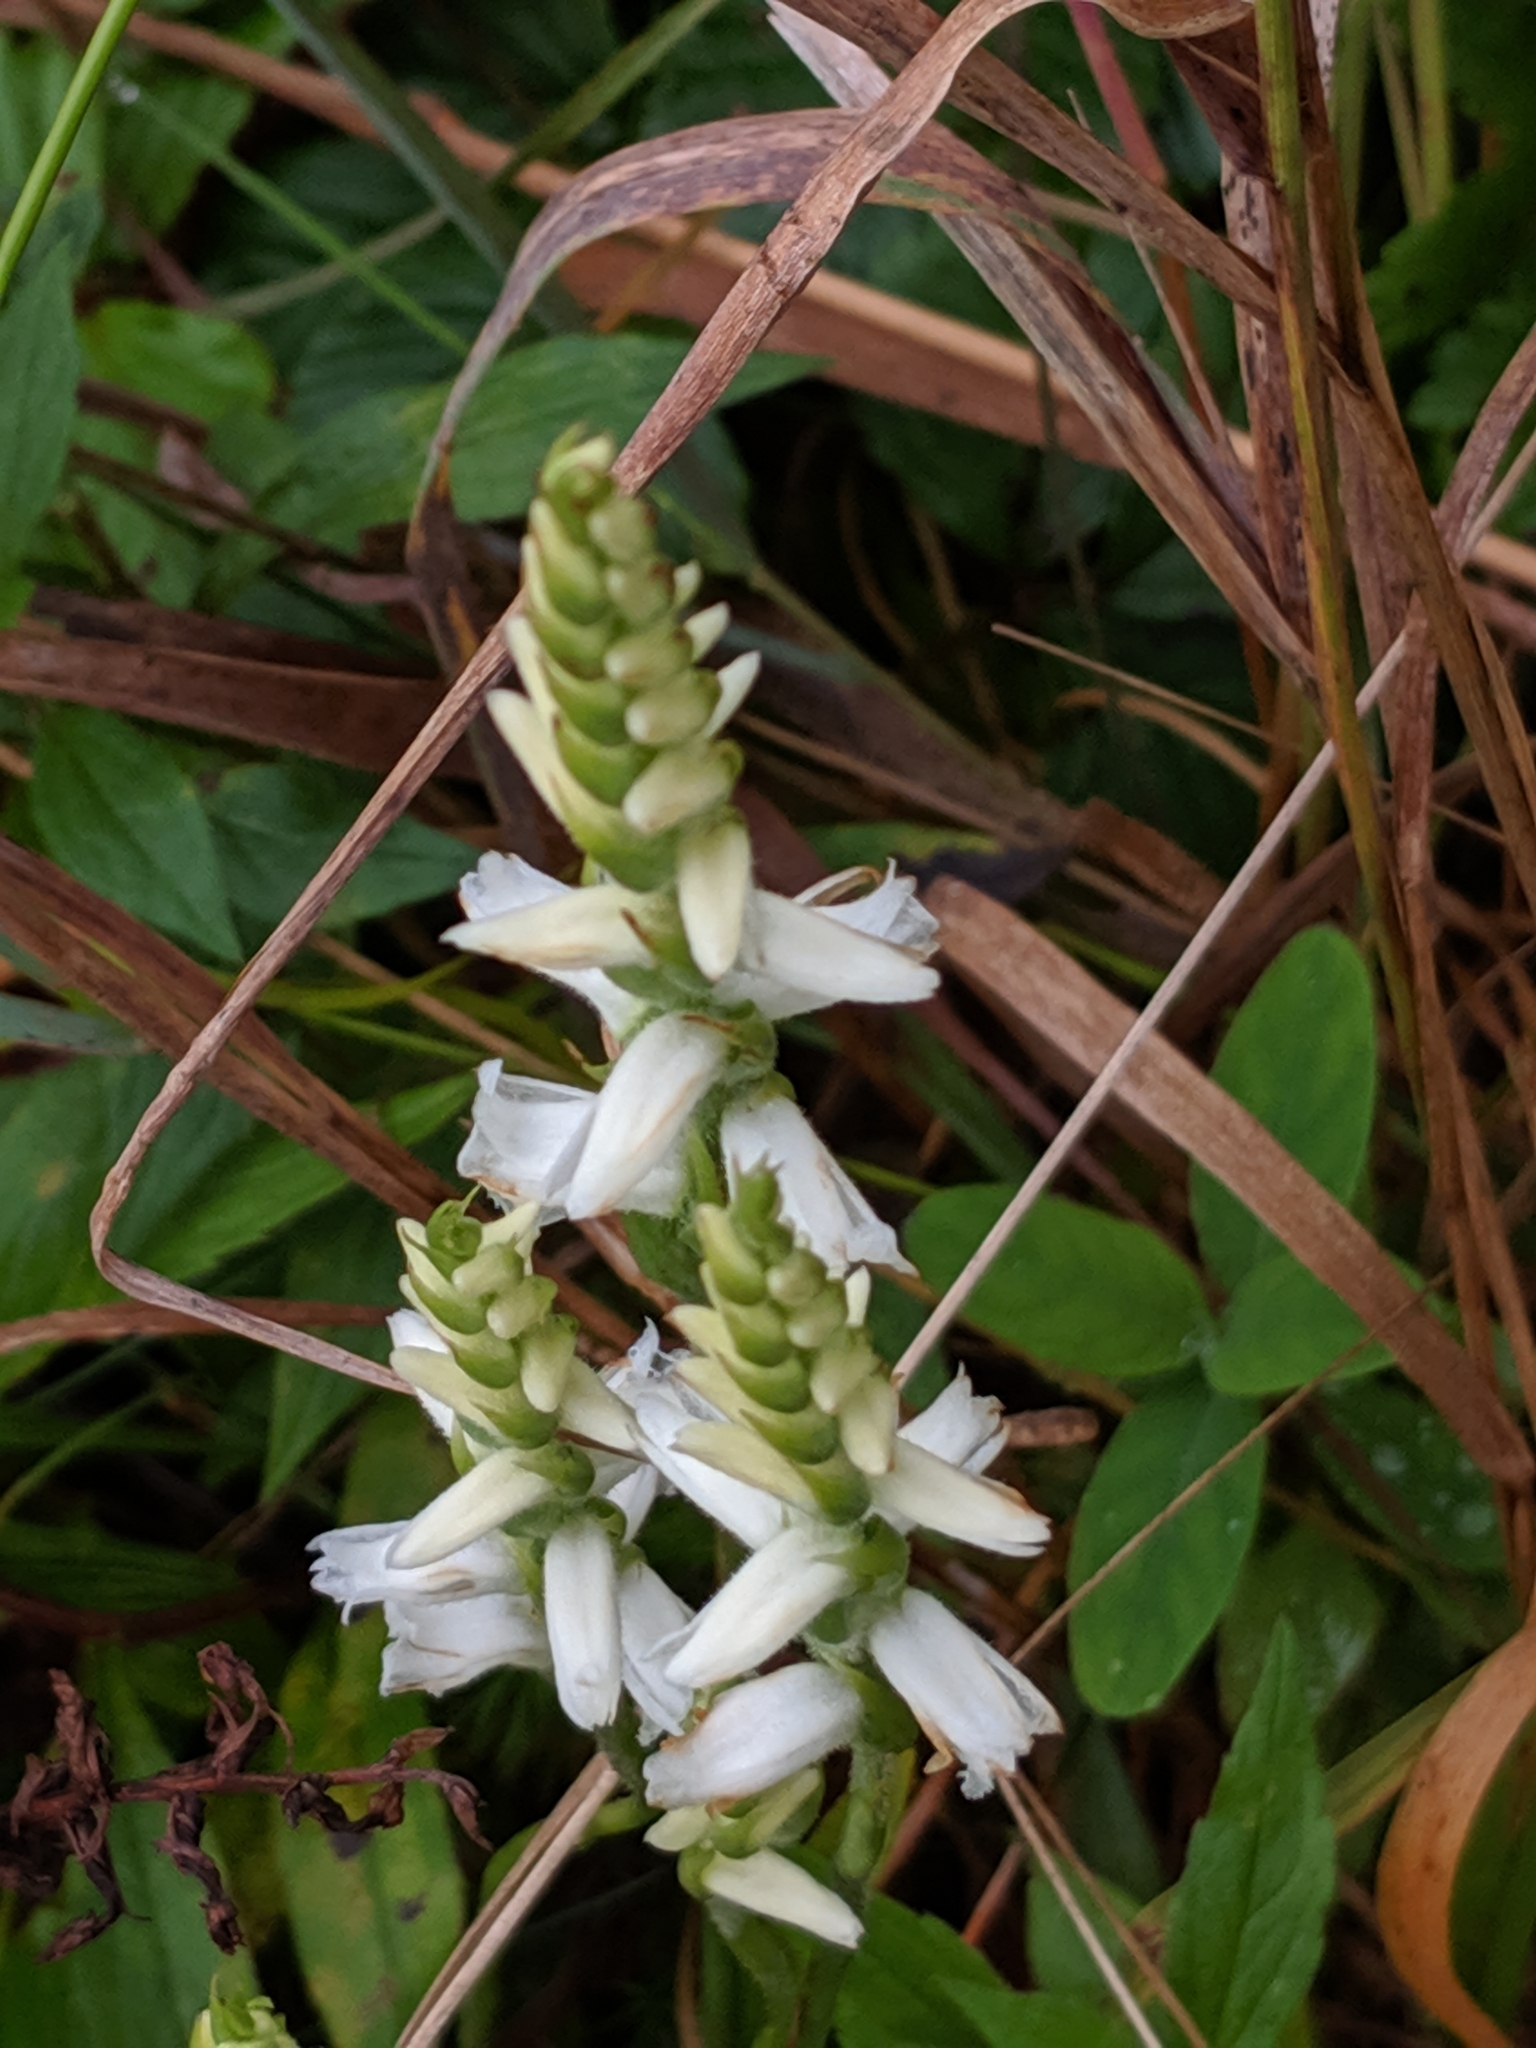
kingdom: Plantae
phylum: Tracheophyta
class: Liliopsida
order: Asparagales
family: Orchidaceae
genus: Spiranthes
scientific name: Spiranthes arcisepala
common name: Appalachian ladies'-tresses
